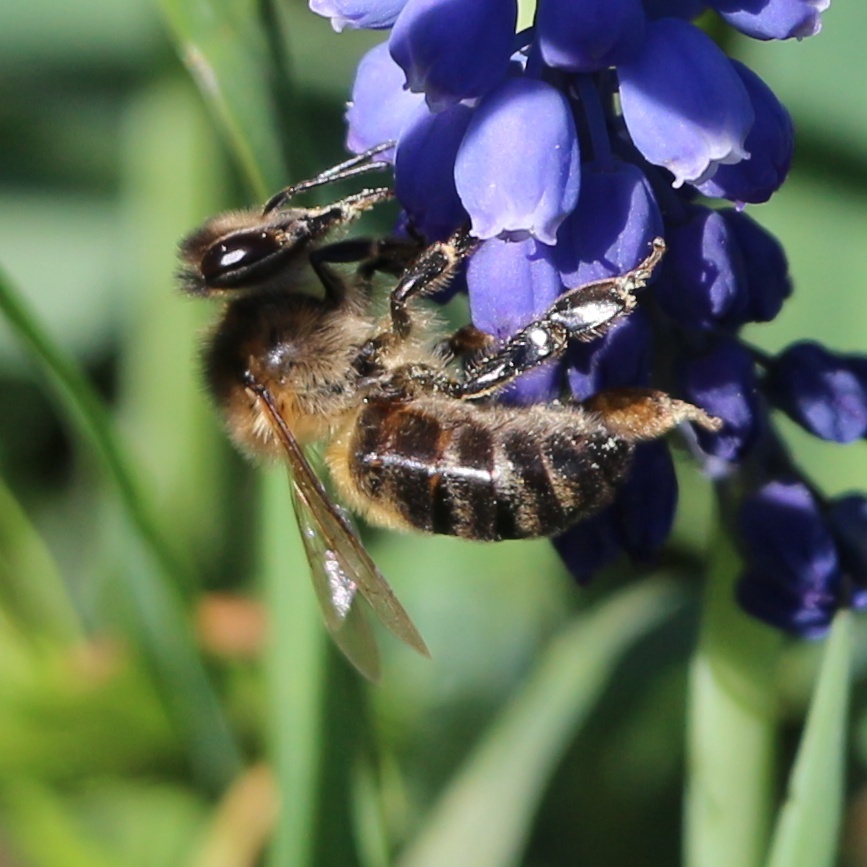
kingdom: Animalia
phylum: Arthropoda
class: Insecta
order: Hymenoptera
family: Apidae
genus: Apis
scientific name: Apis mellifera
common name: Honey bee
